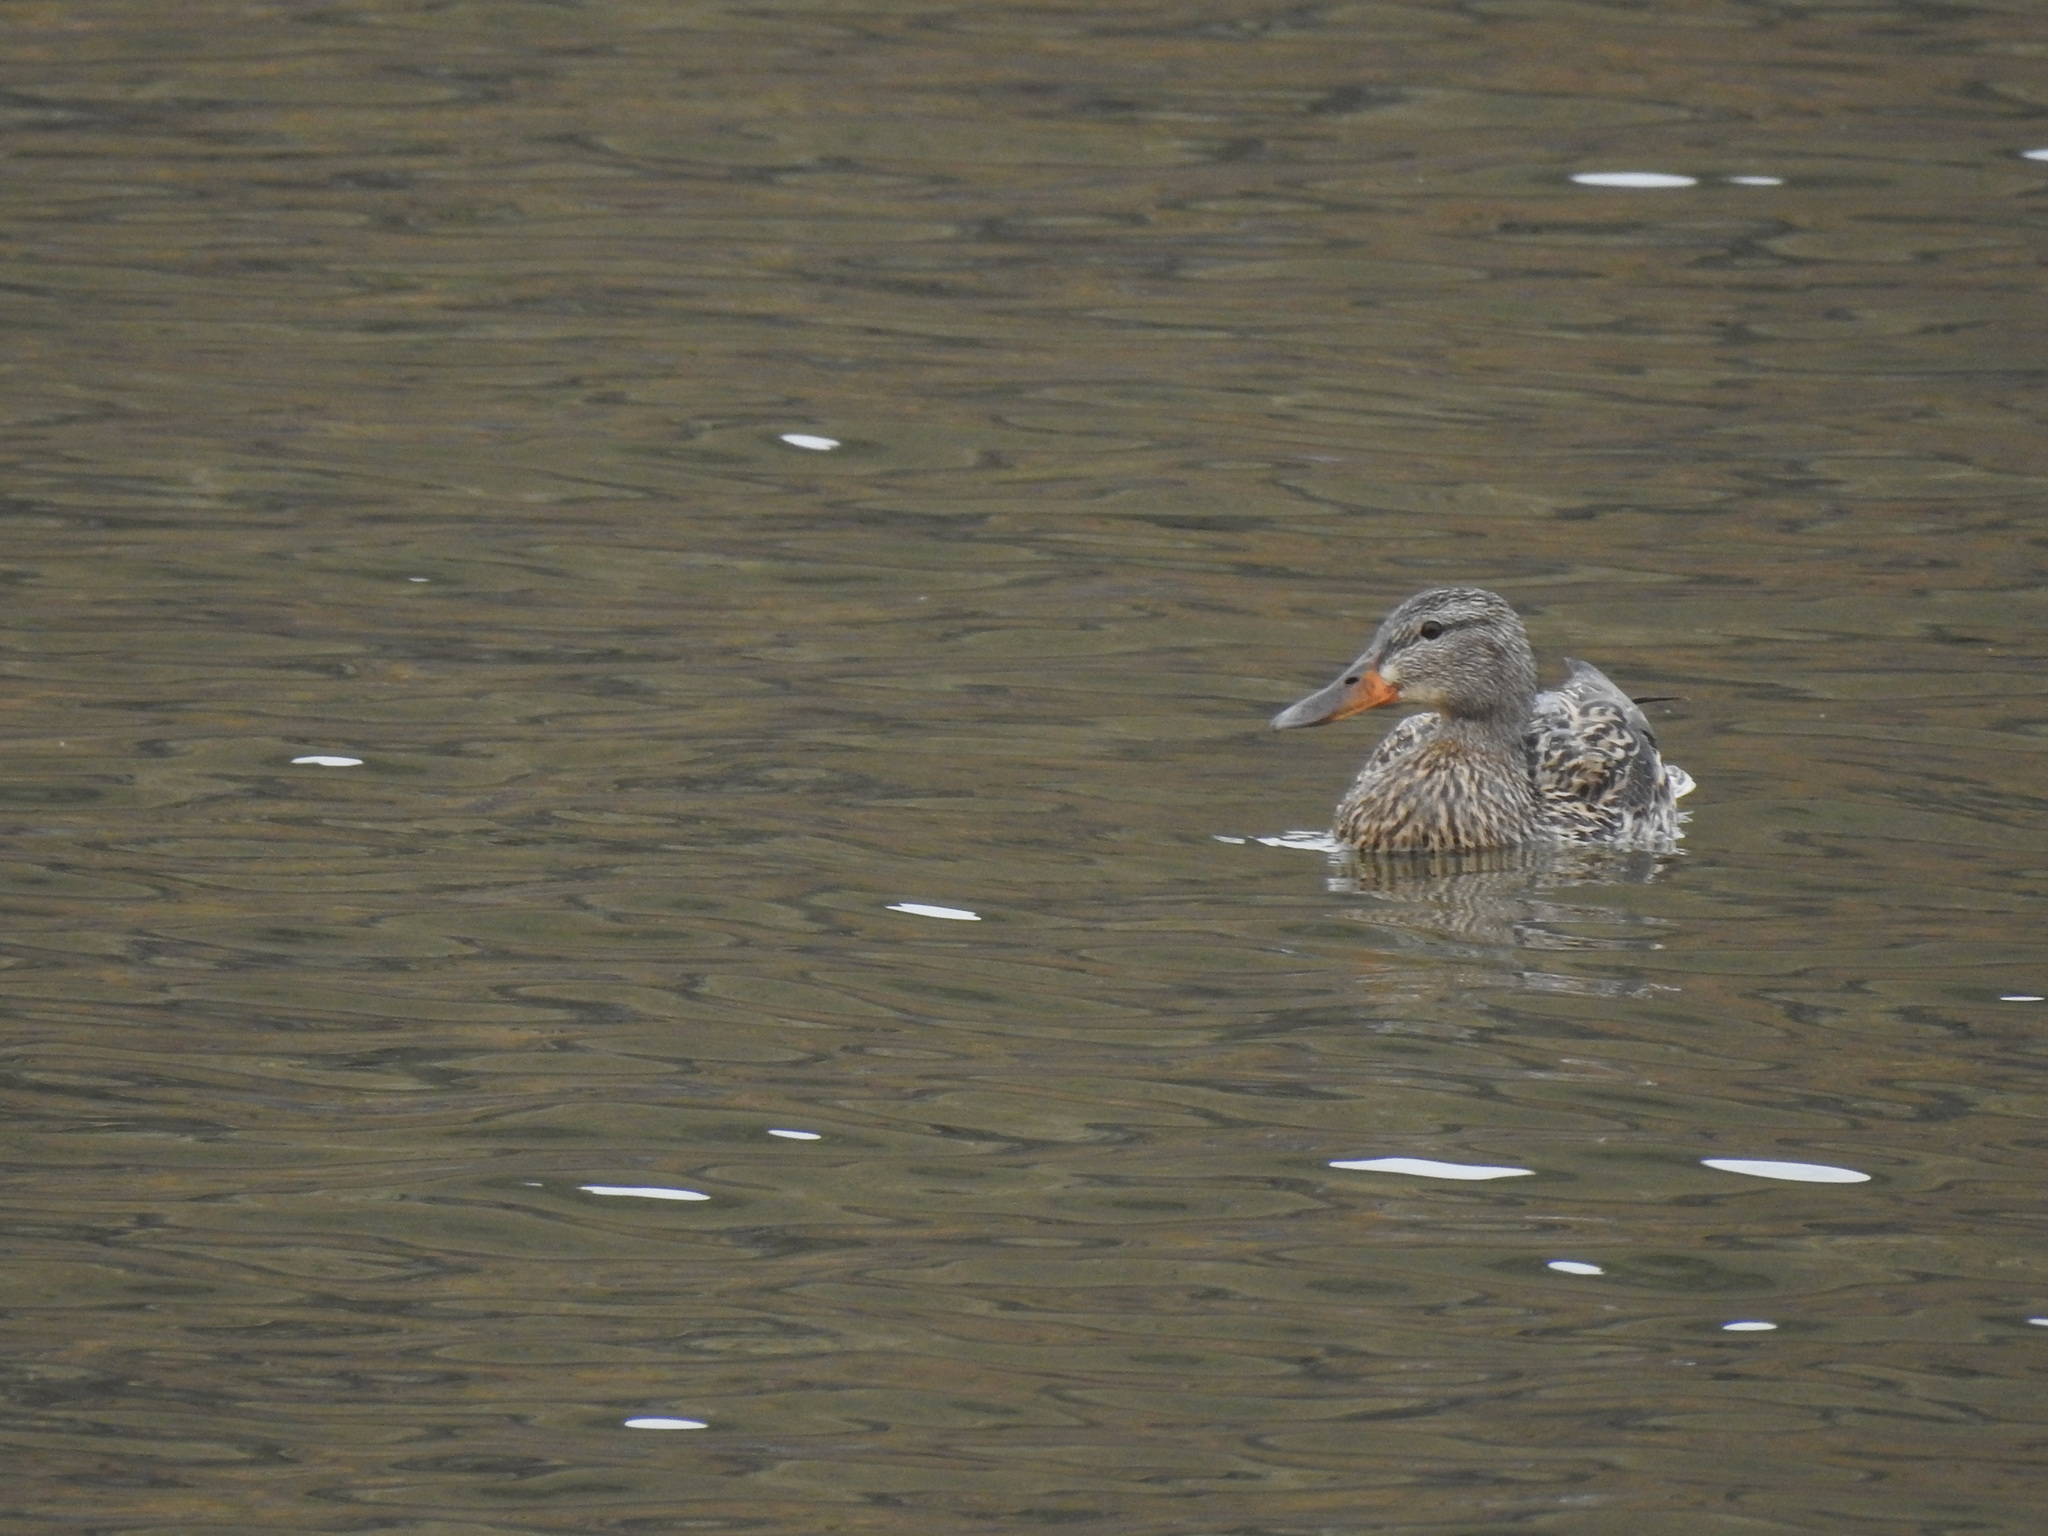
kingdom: Animalia
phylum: Chordata
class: Aves
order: Anseriformes
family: Anatidae
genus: Anas
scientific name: Anas platyrhynchos
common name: Mallard
